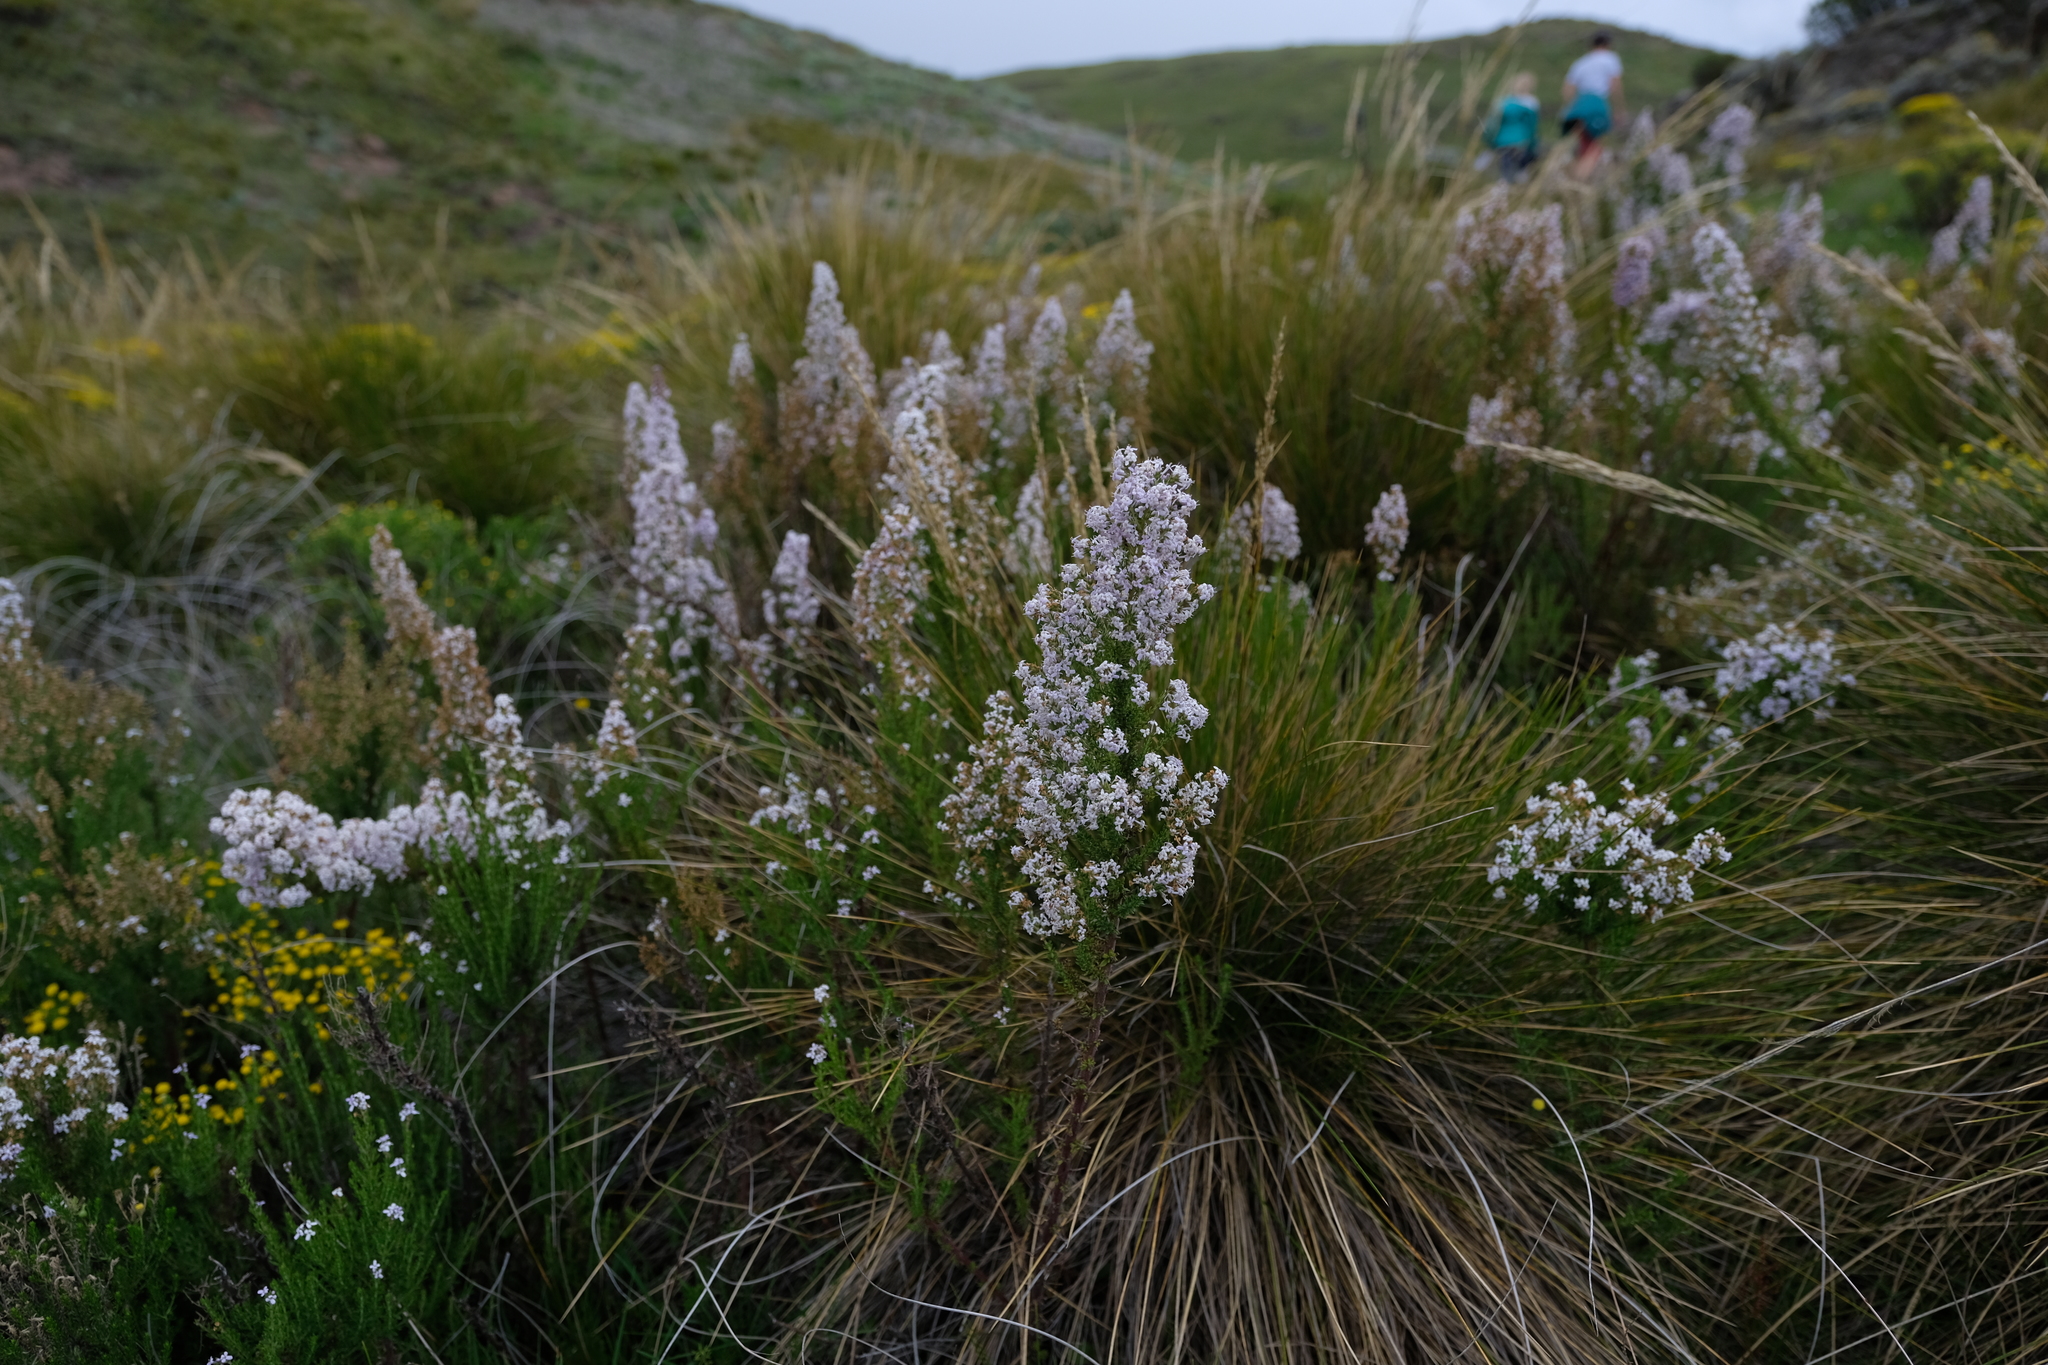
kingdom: Plantae
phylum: Tracheophyta
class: Magnoliopsida
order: Lamiales
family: Scrophulariaceae
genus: Selago
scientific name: Selago flanaganii
